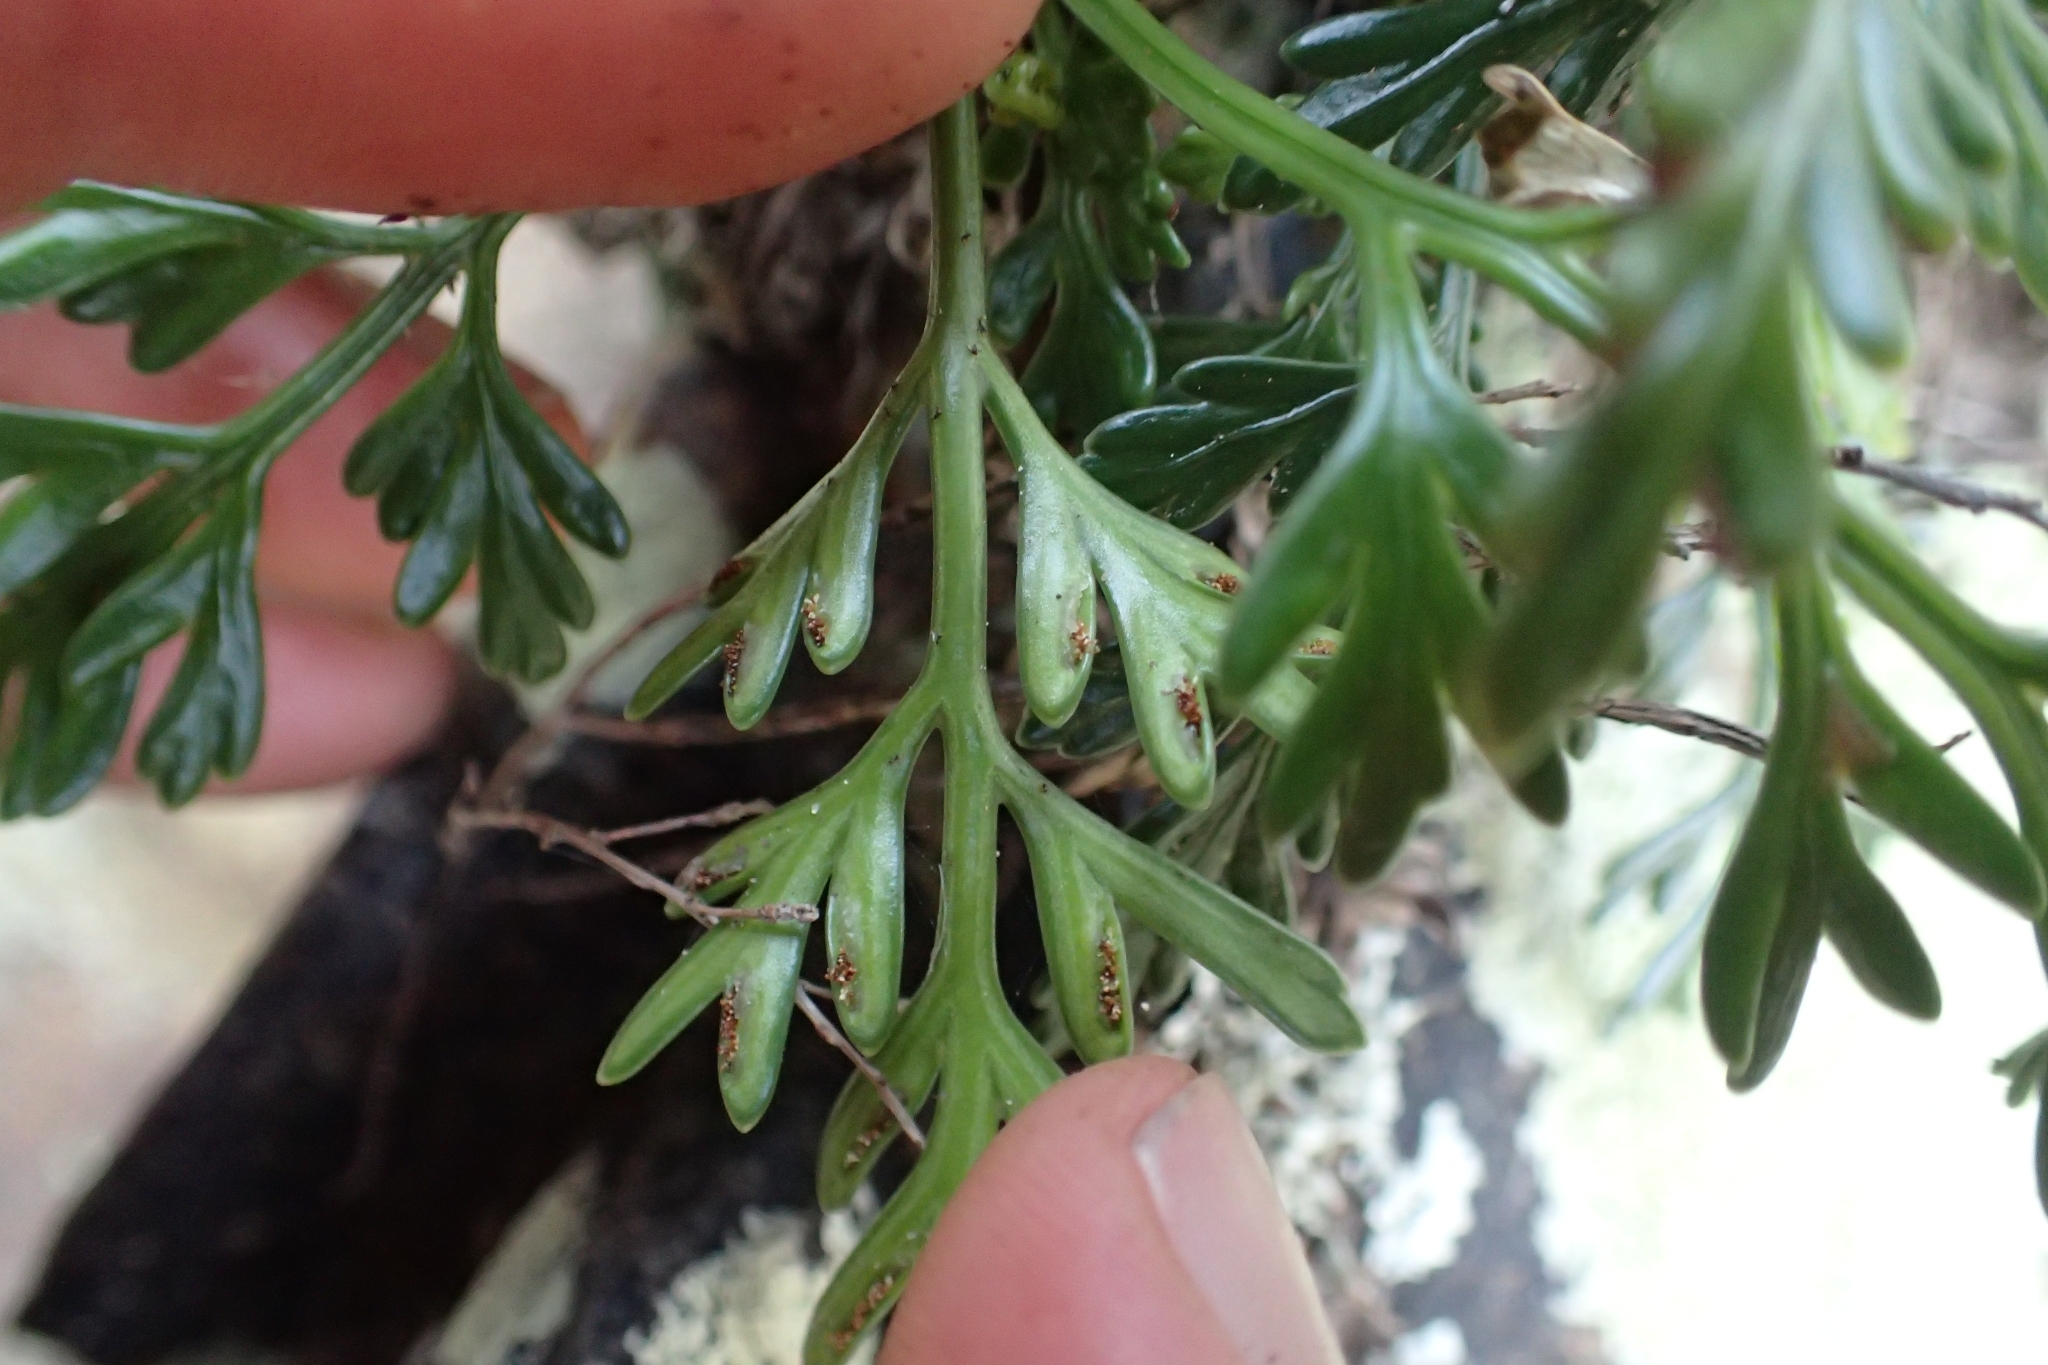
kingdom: Plantae
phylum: Tracheophyta
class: Polypodiopsida
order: Polypodiales
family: Aspleniaceae
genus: Asplenium
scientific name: Asplenium flaccidum
